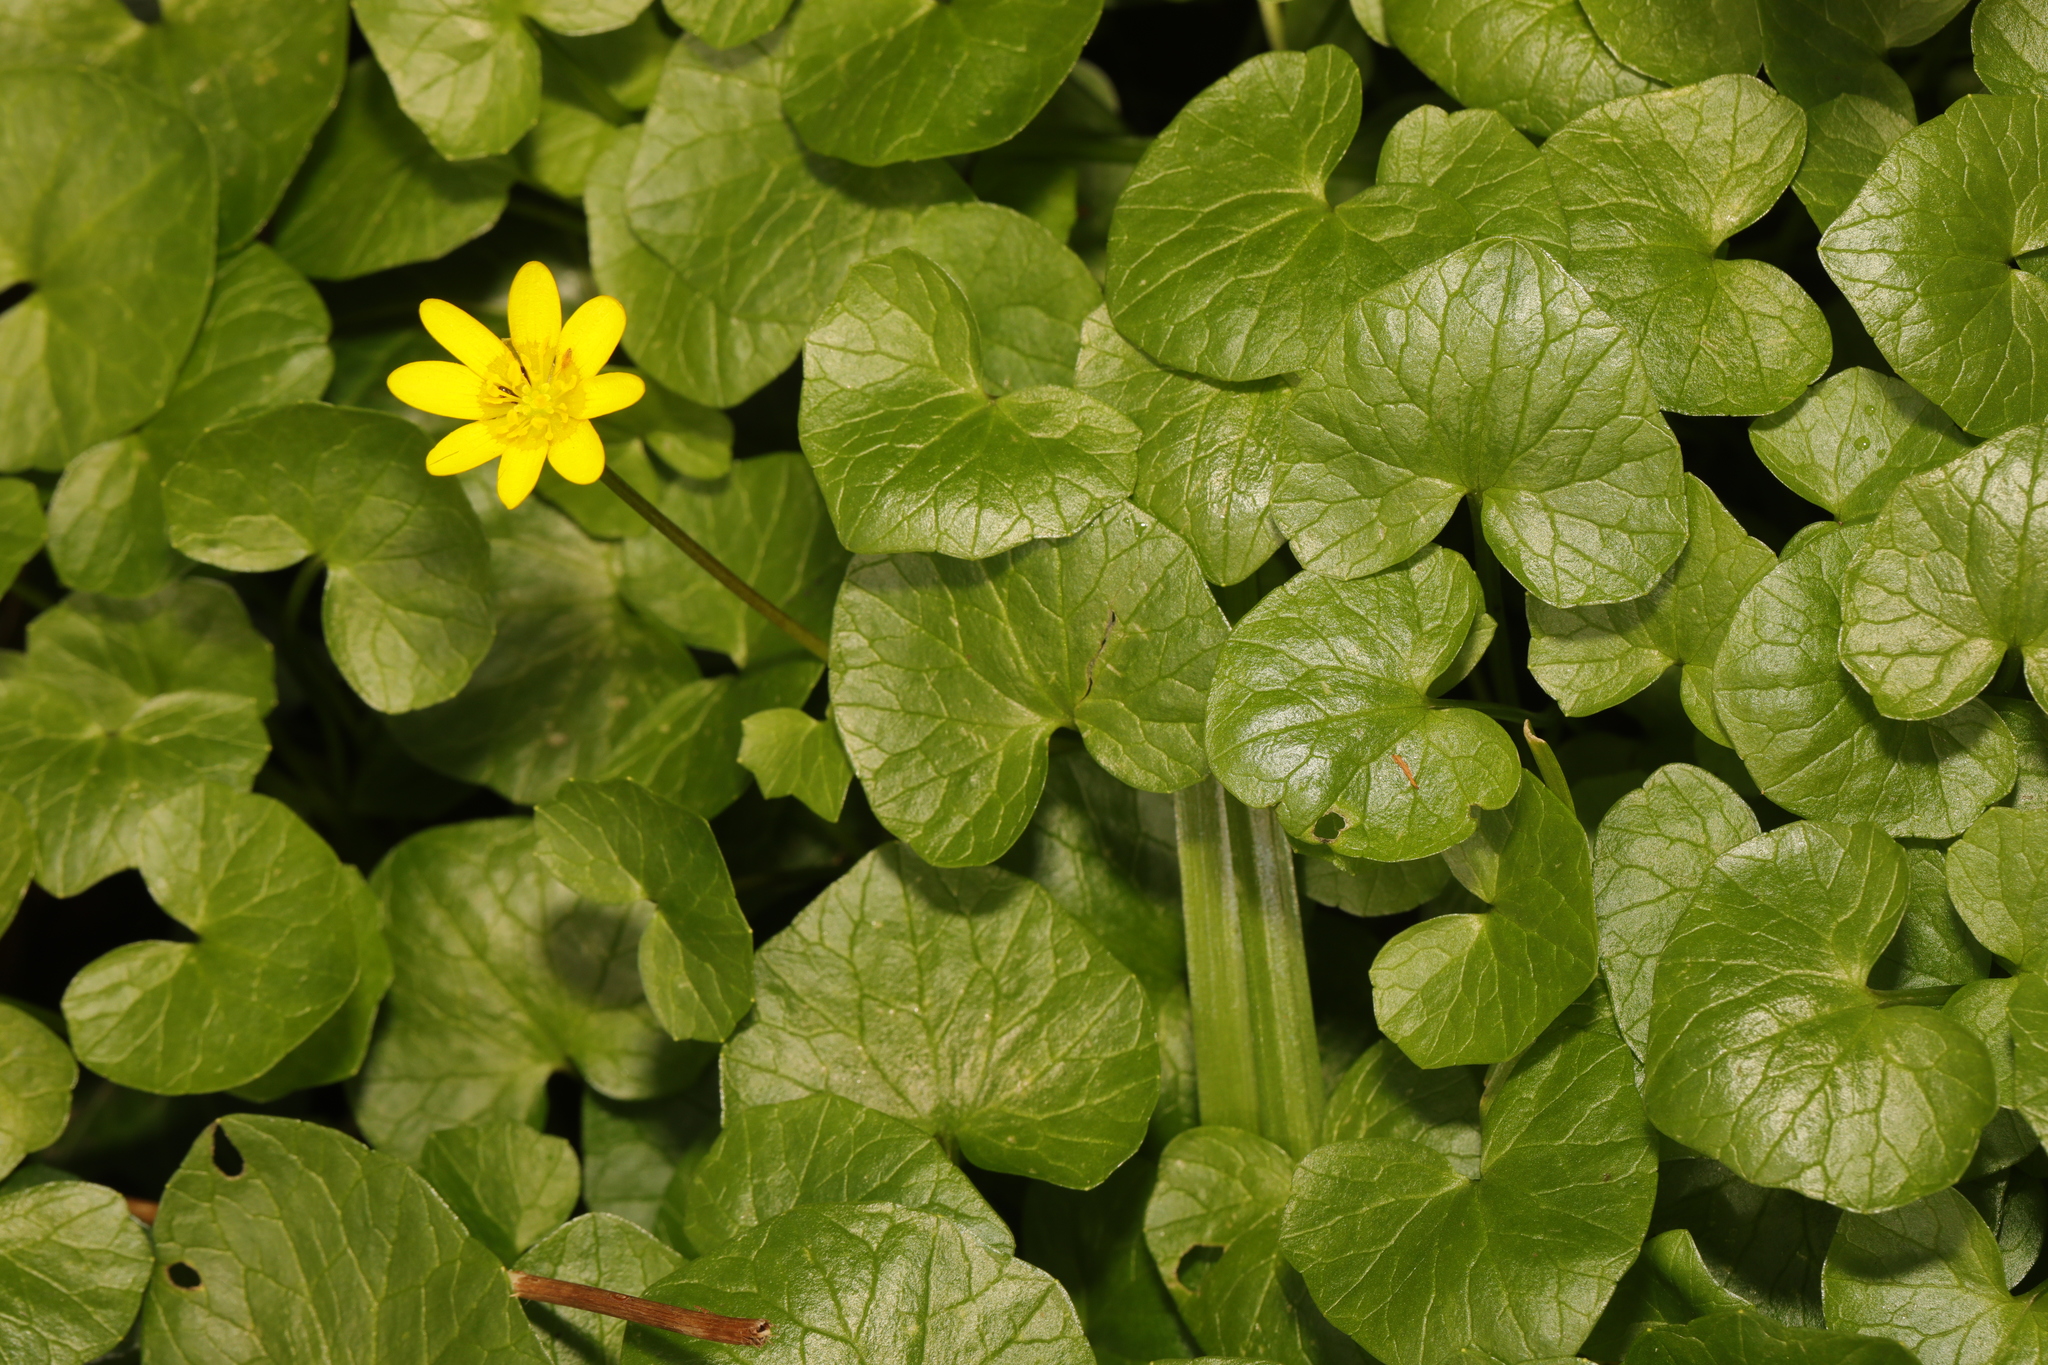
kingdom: Plantae
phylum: Tracheophyta
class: Magnoliopsida
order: Ranunculales
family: Ranunculaceae
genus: Ficaria
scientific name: Ficaria verna
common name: Lesser celandine
